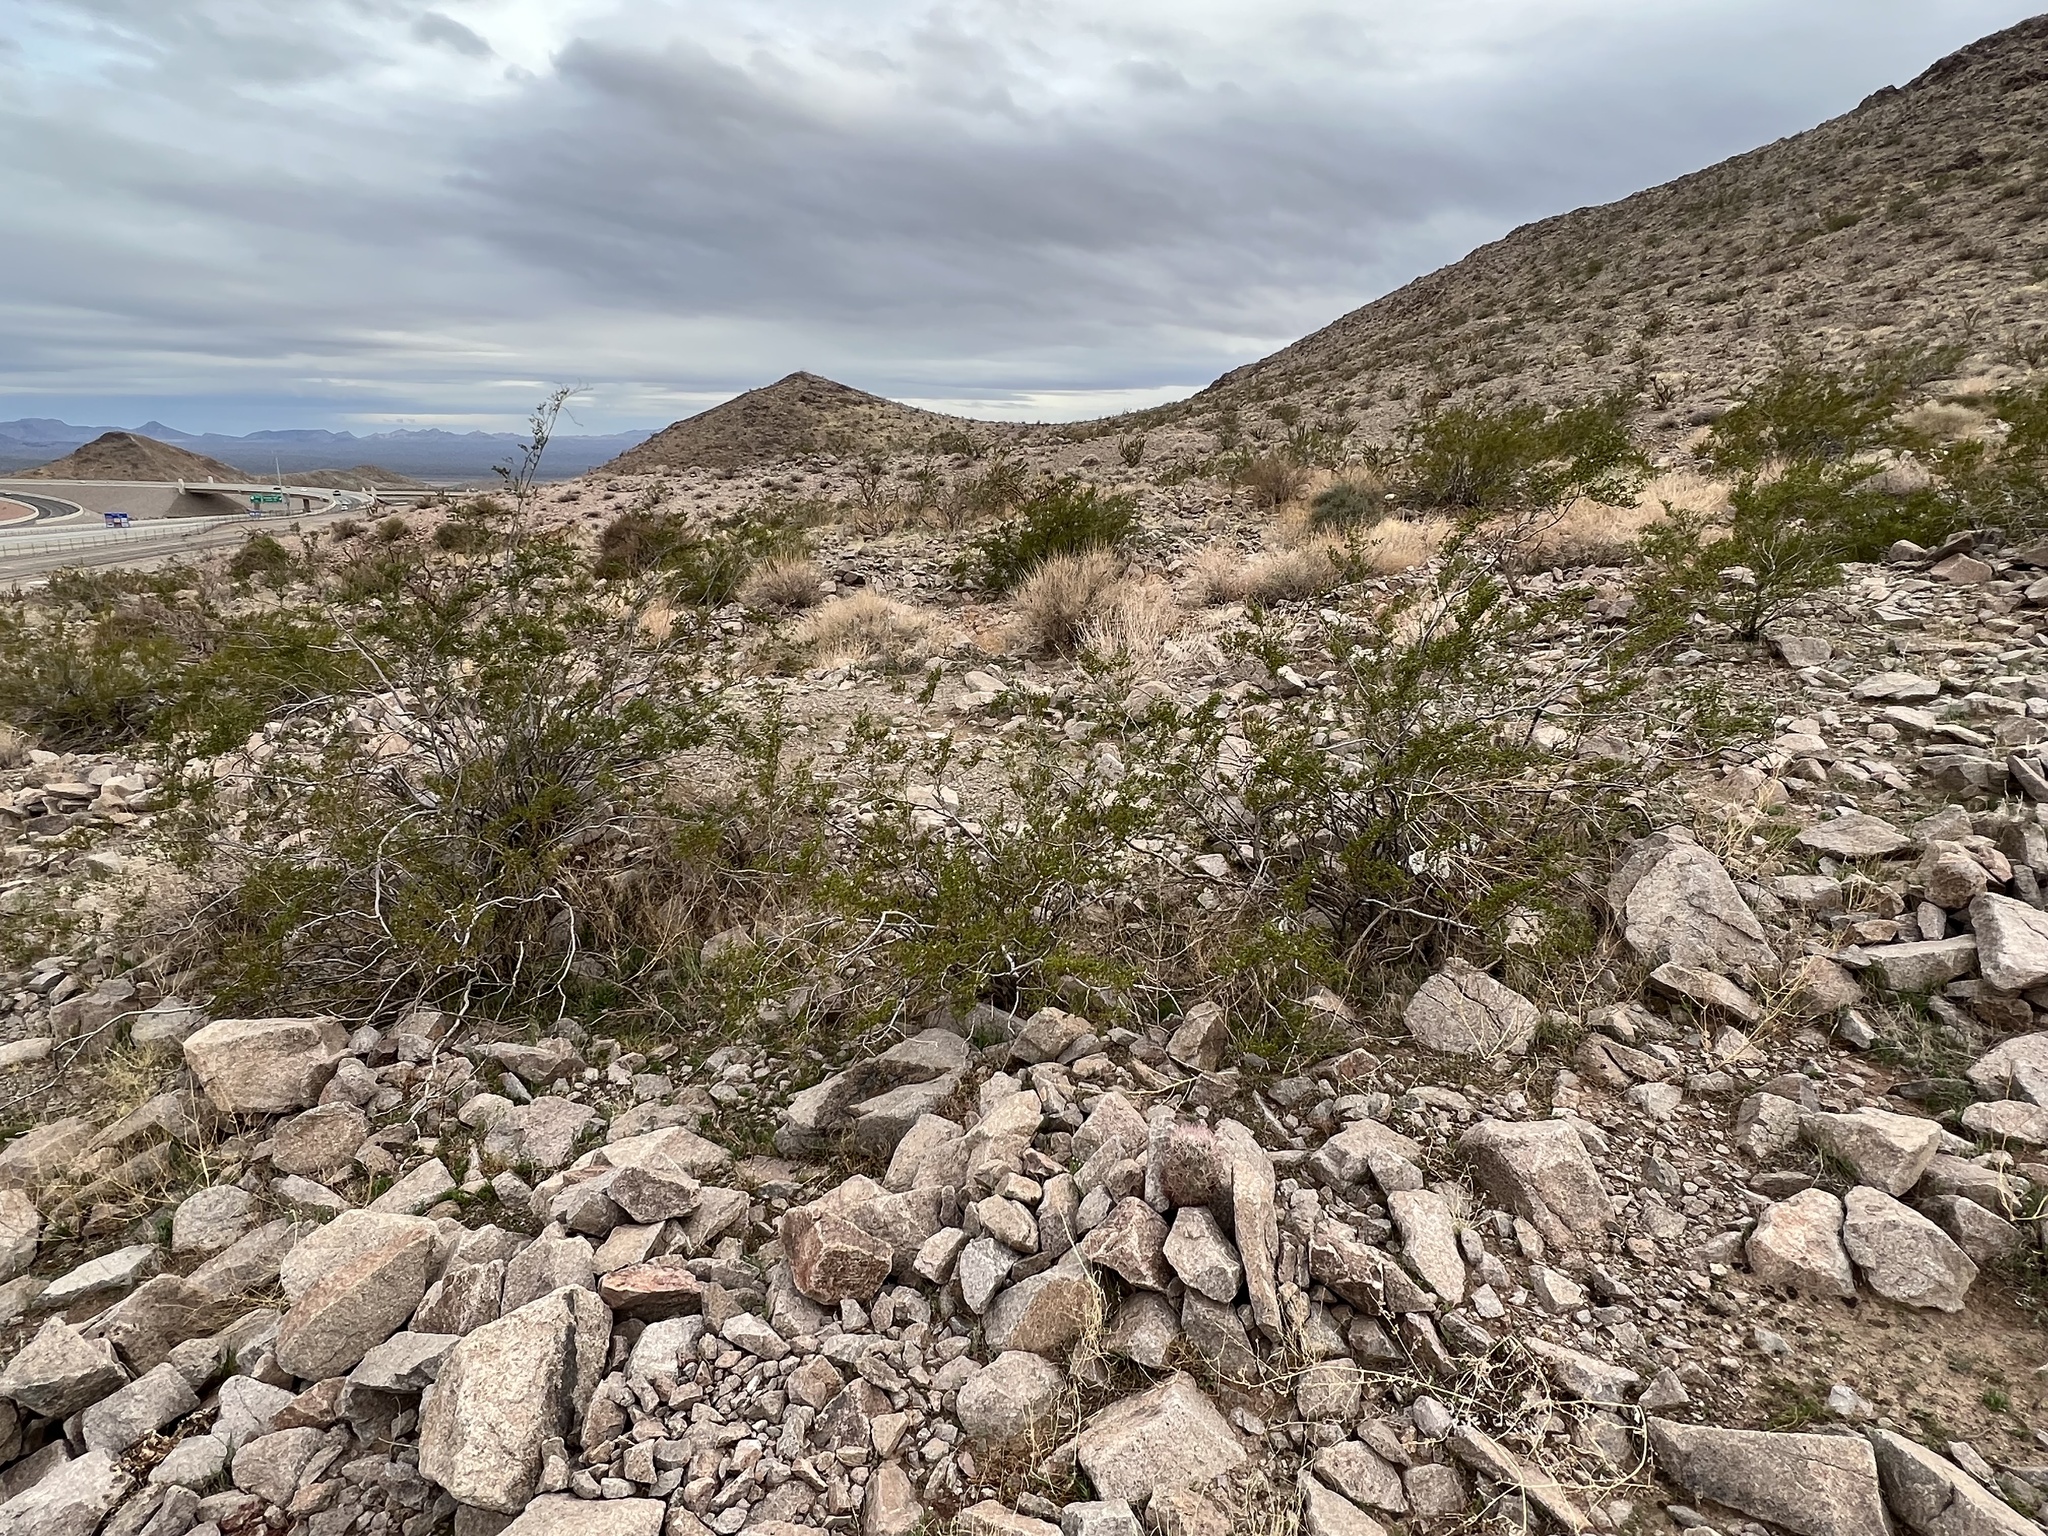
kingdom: Plantae
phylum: Tracheophyta
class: Magnoliopsida
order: Zygophyllales
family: Zygophyllaceae
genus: Larrea
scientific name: Larrea tridentata
